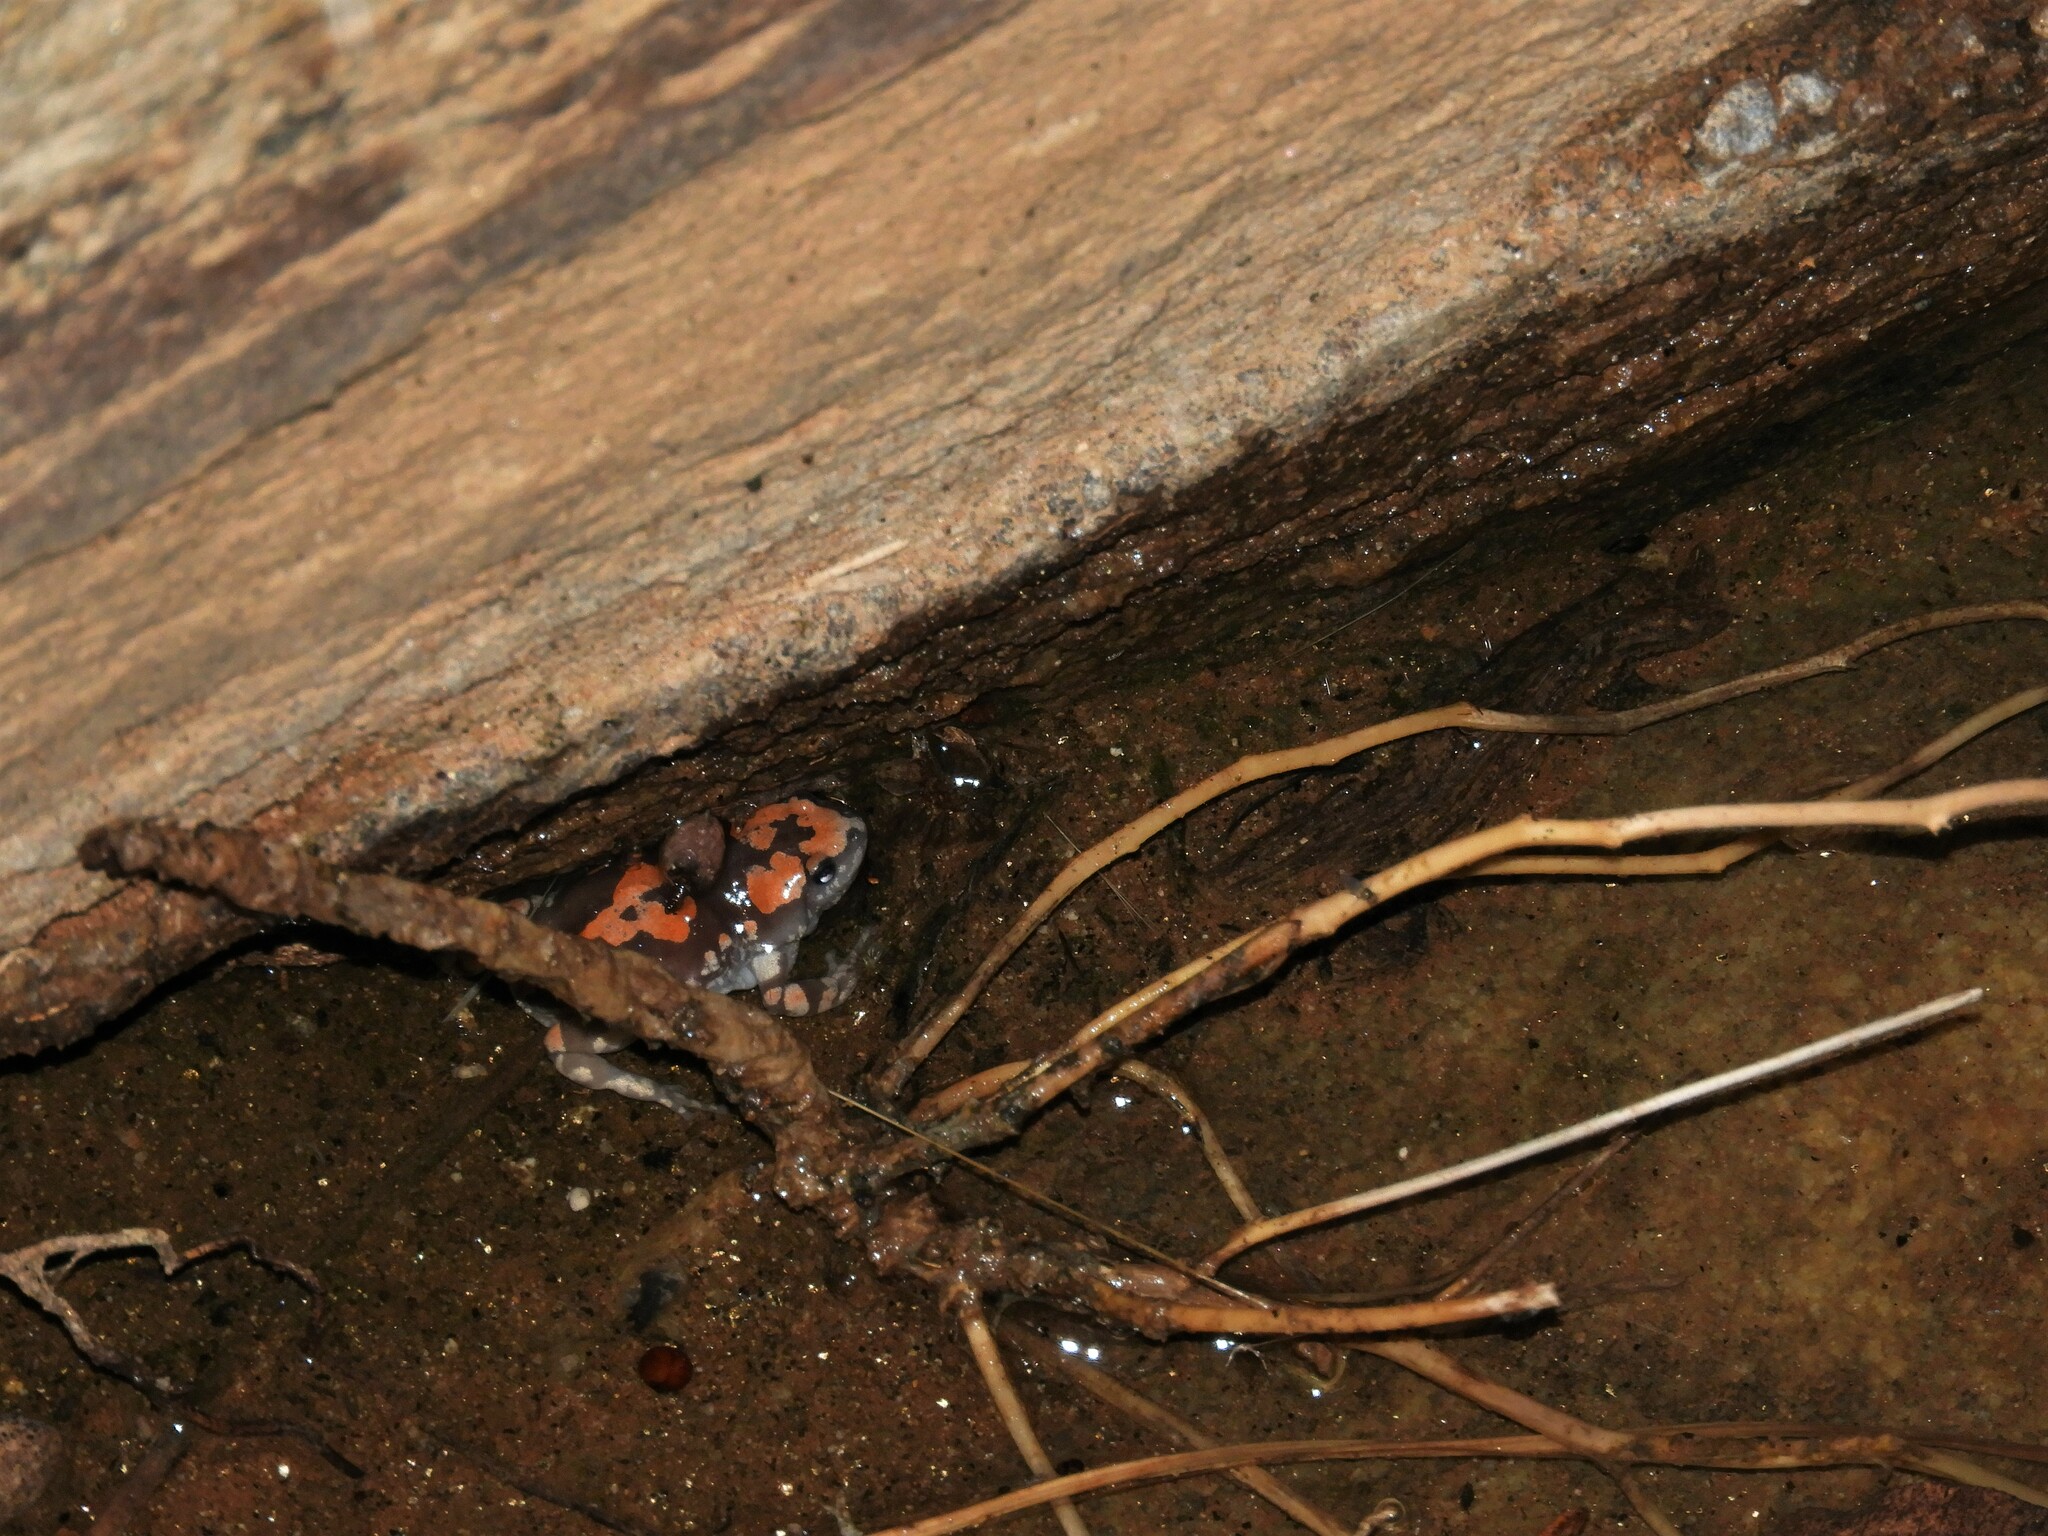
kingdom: Animalia
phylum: Chordata
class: Amphibia
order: Anura
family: Microhylidae
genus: Phrynomantis
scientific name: Phrynomantis annectens
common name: Marbled rubber frog
